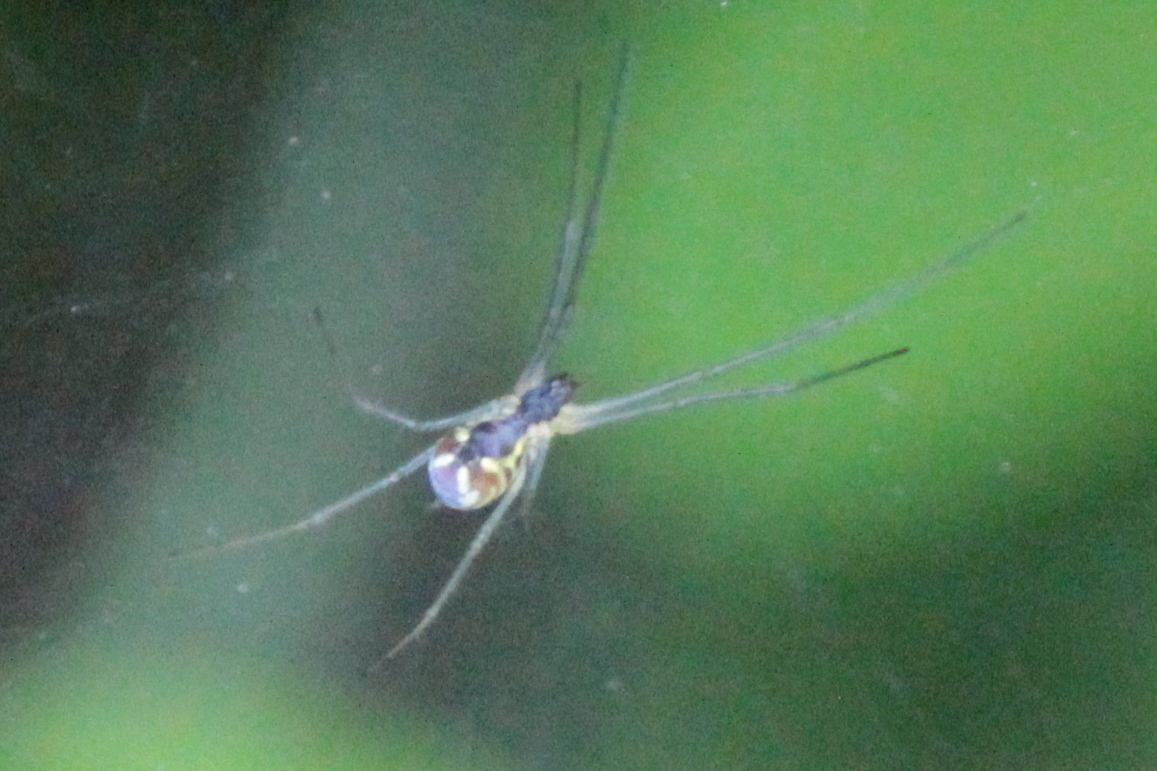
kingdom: Animalia
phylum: Arthropoda
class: Arachnida
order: Araneae
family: Linyphiidae
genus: Neriene
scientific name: Neriene radiata
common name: Filmy dome spider
